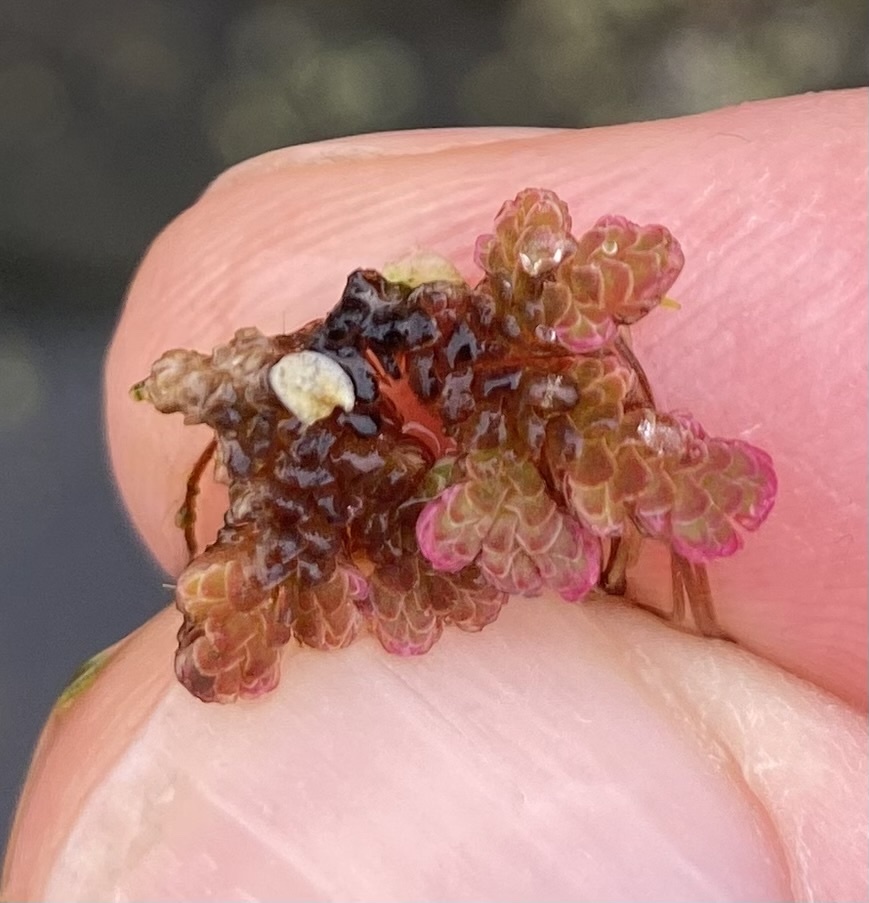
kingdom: Plantae
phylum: Tracheophyta
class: Polypodiopsida
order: Salviniales
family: Salviniaceae
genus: Azolla
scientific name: Azolla filiculoides
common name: Water fern
